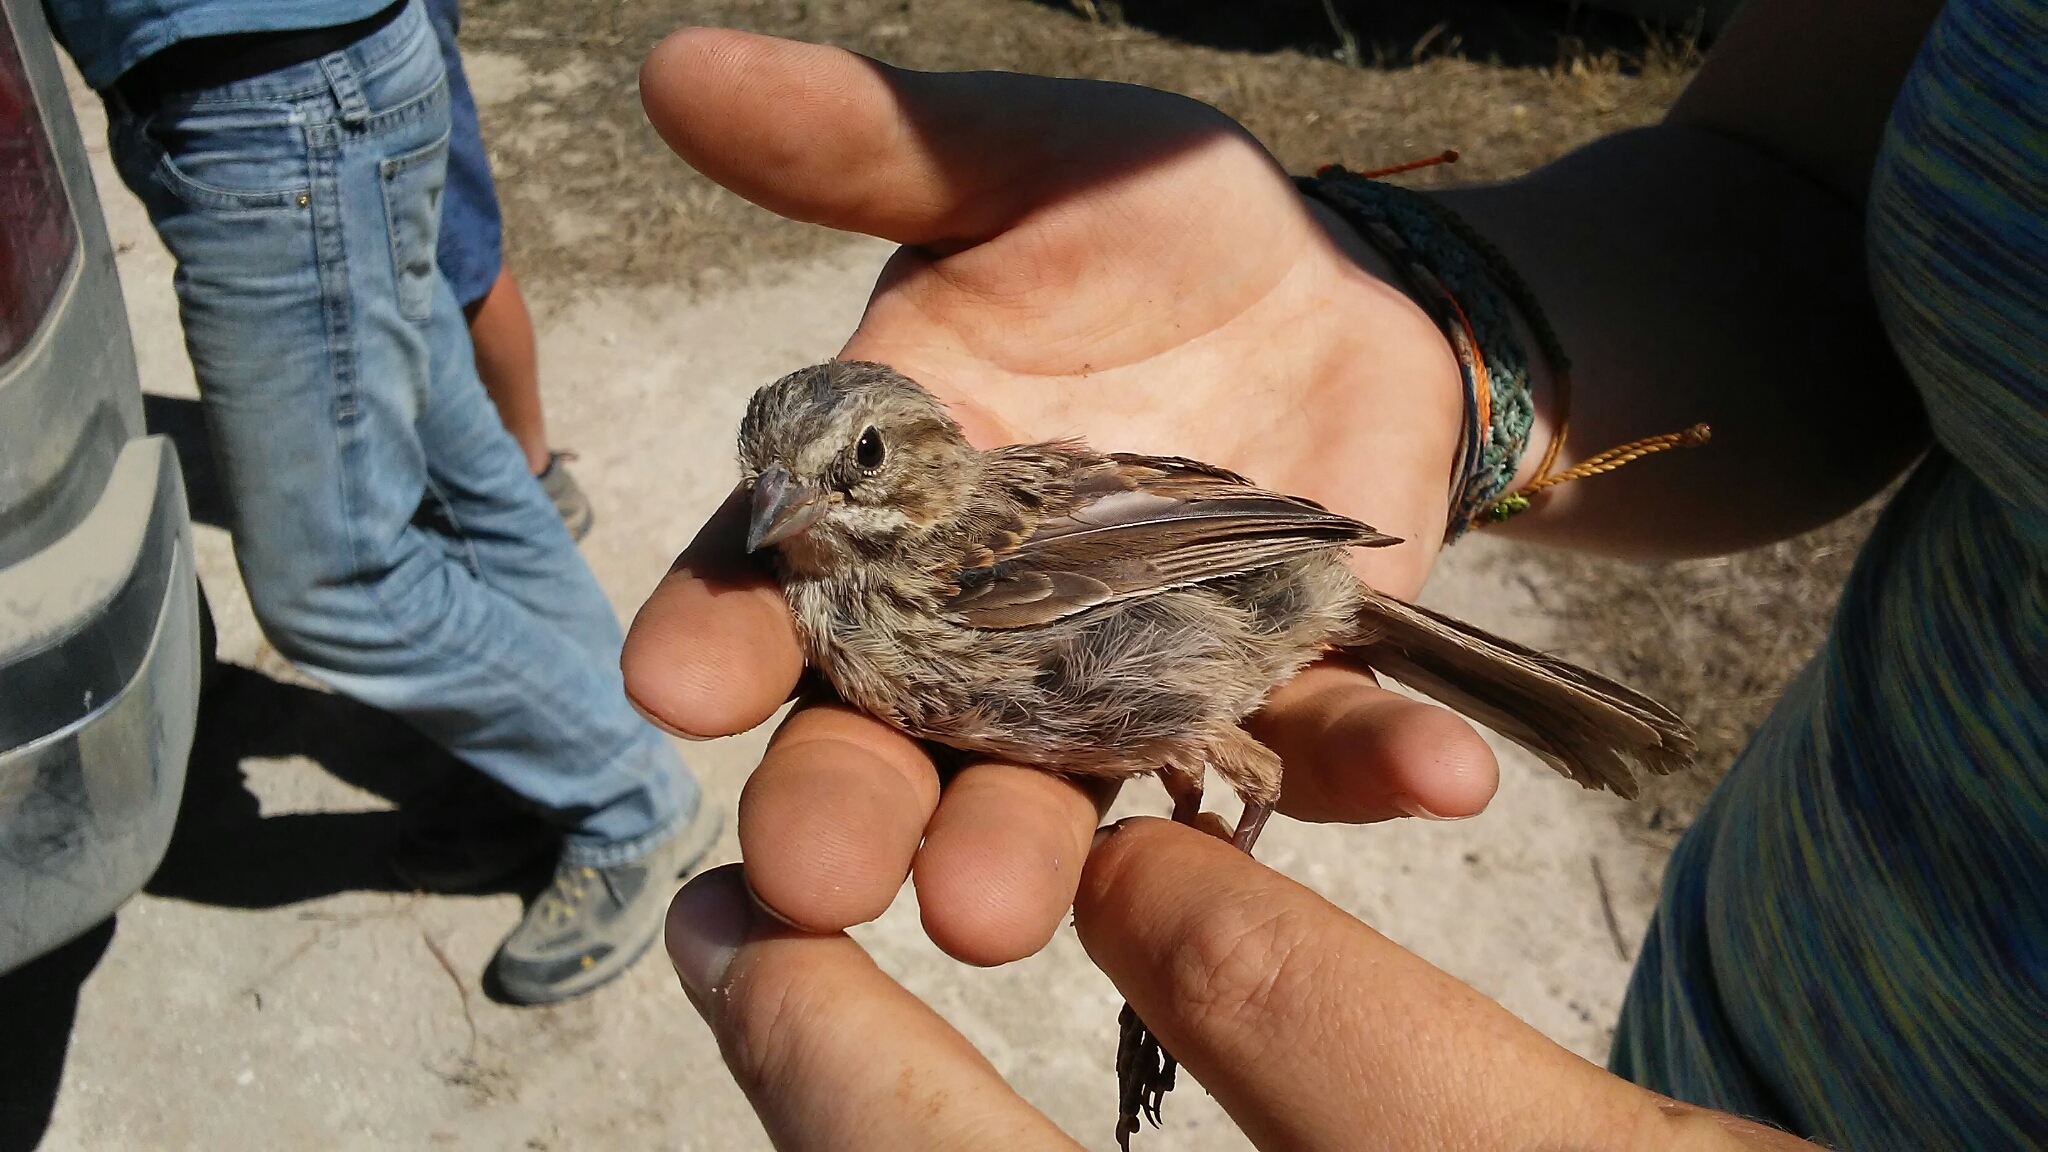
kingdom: Animalia
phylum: Chordata
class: Aves
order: Passeriformes
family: Passerellidae
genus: Melospiza
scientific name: Melospiza melodia
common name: Song sparrow
